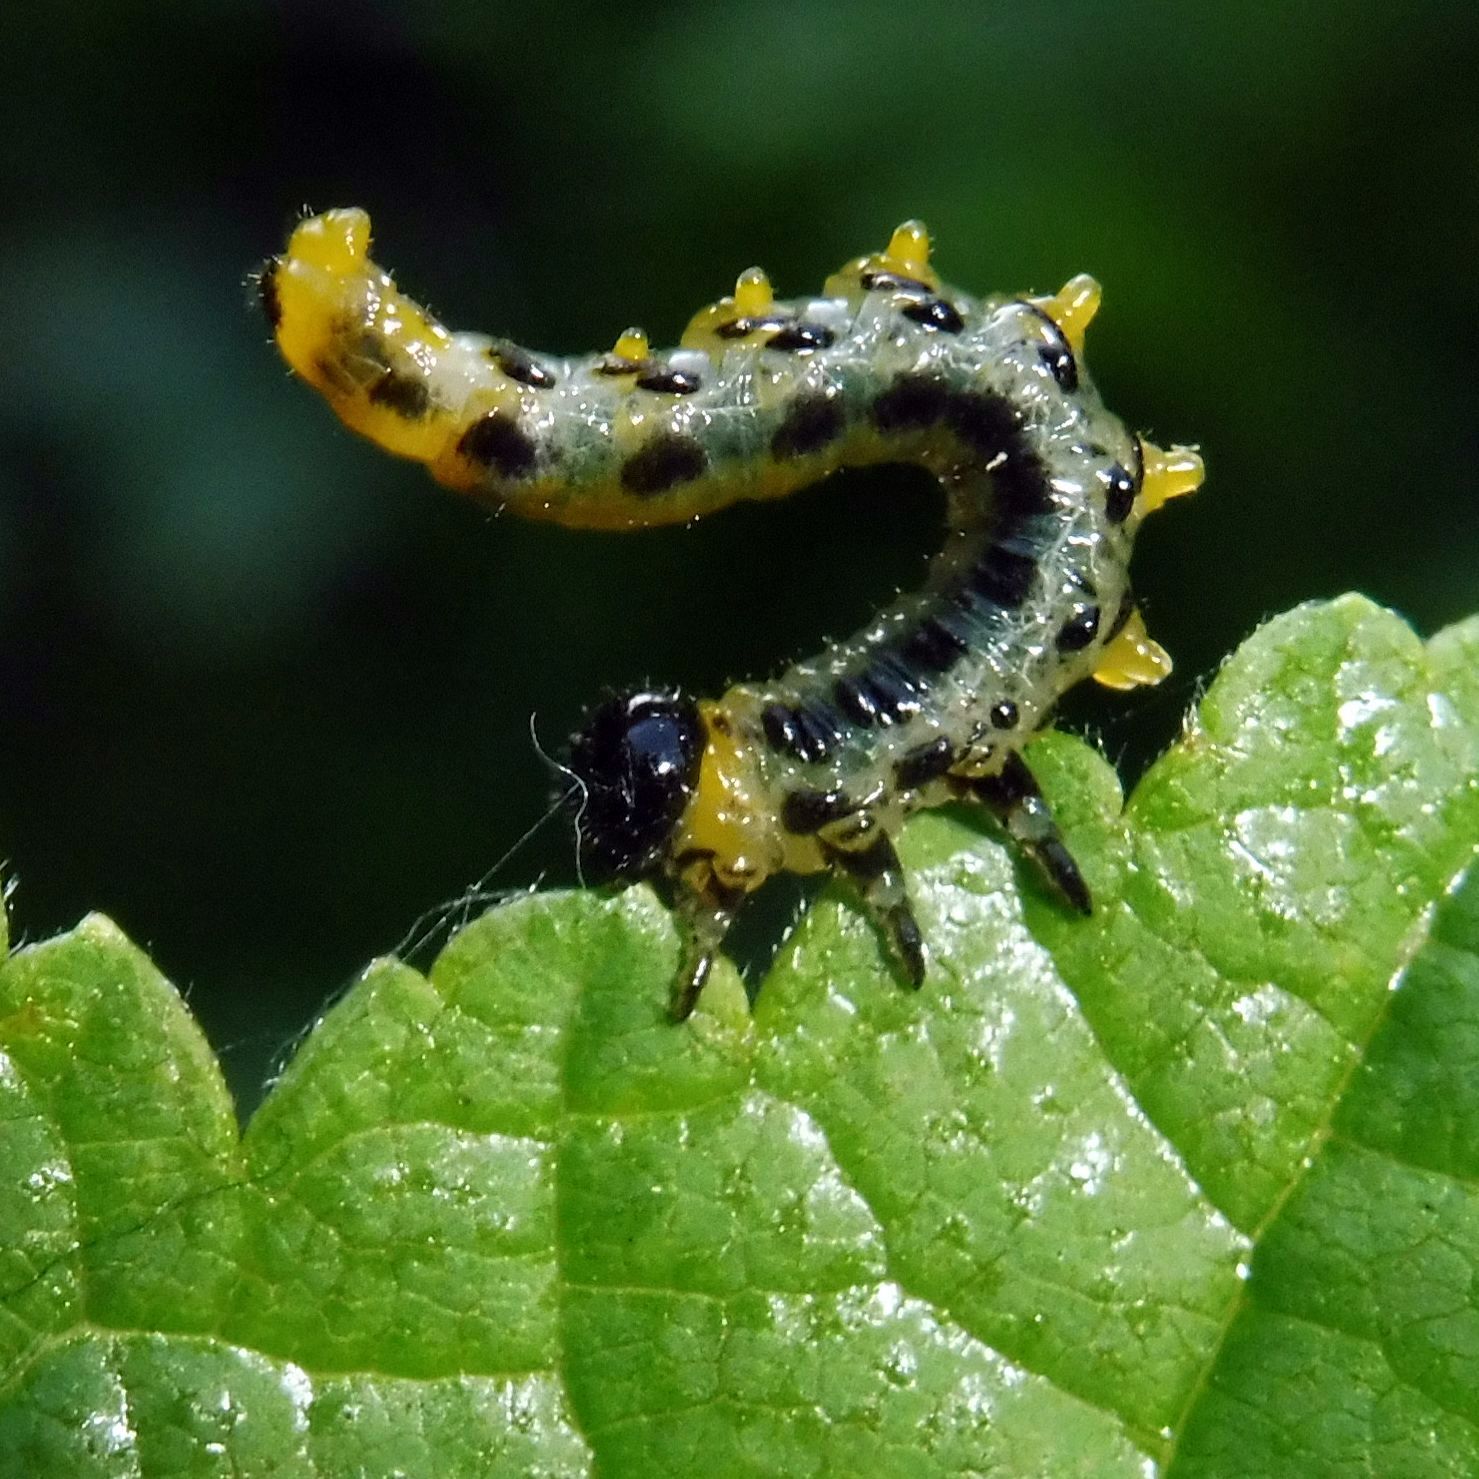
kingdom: Animalia
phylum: Arthropoda
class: Insecta
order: Hymenoptera
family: Tenthredinidae
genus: Craesus
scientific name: Craesus septentrionalis
